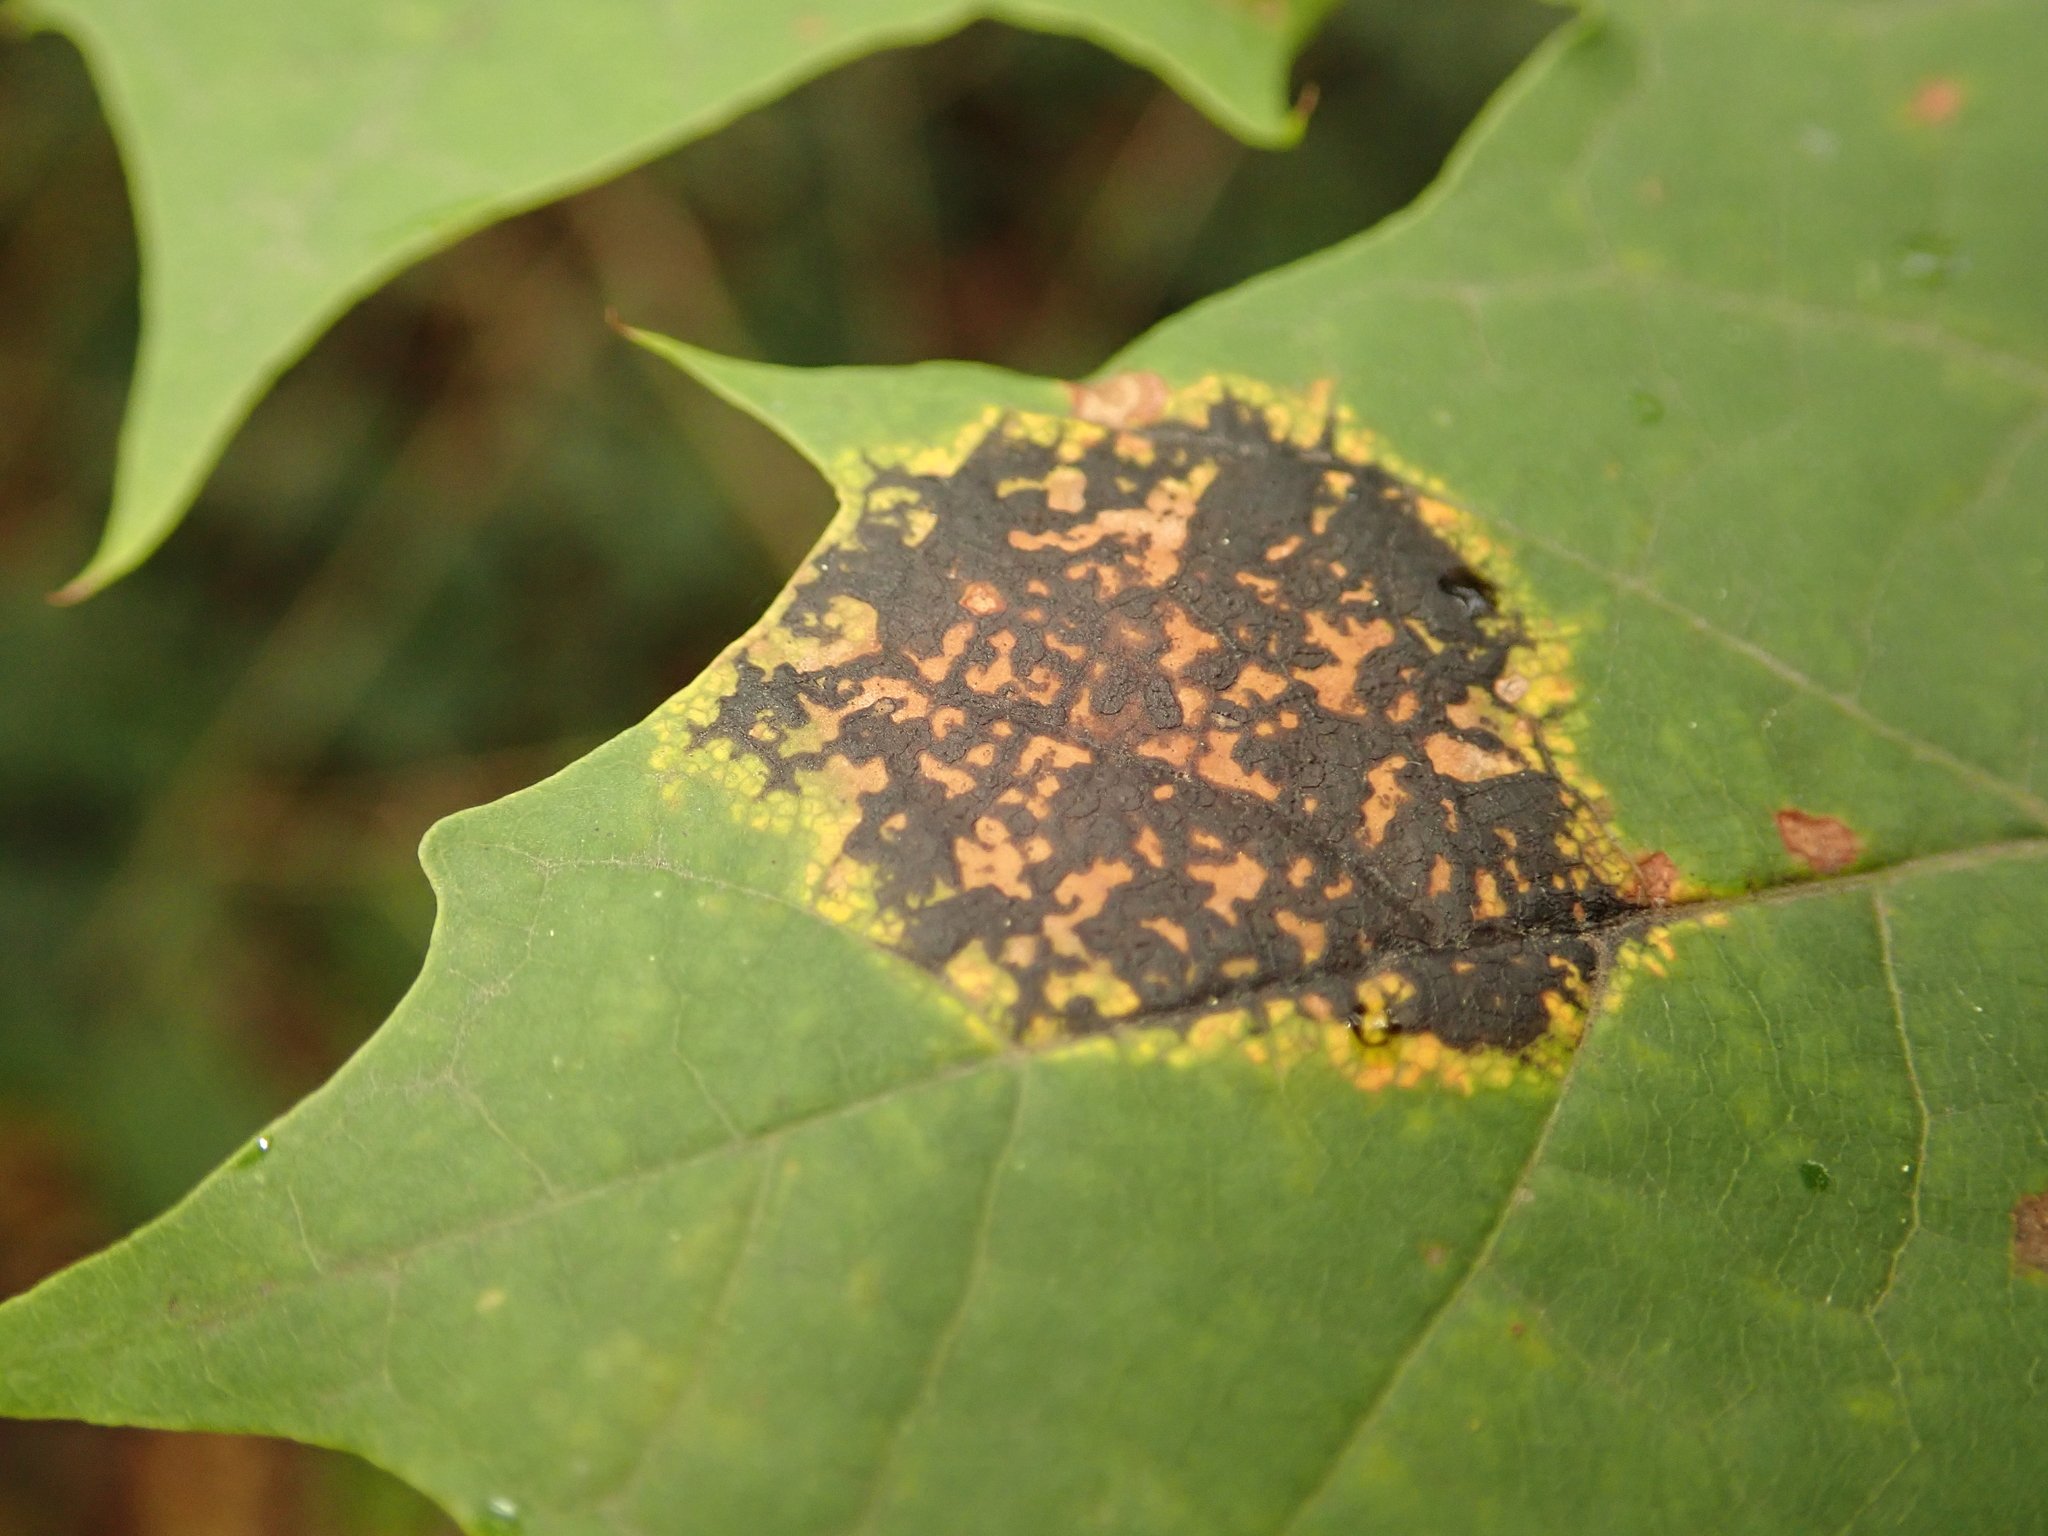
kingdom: Fungi
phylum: Ascomycota
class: Leotiomycetes
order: Rhytismatales
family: Rhytismataceae
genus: Rhytisma
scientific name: Rhytisma acerinum
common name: European tar spot
